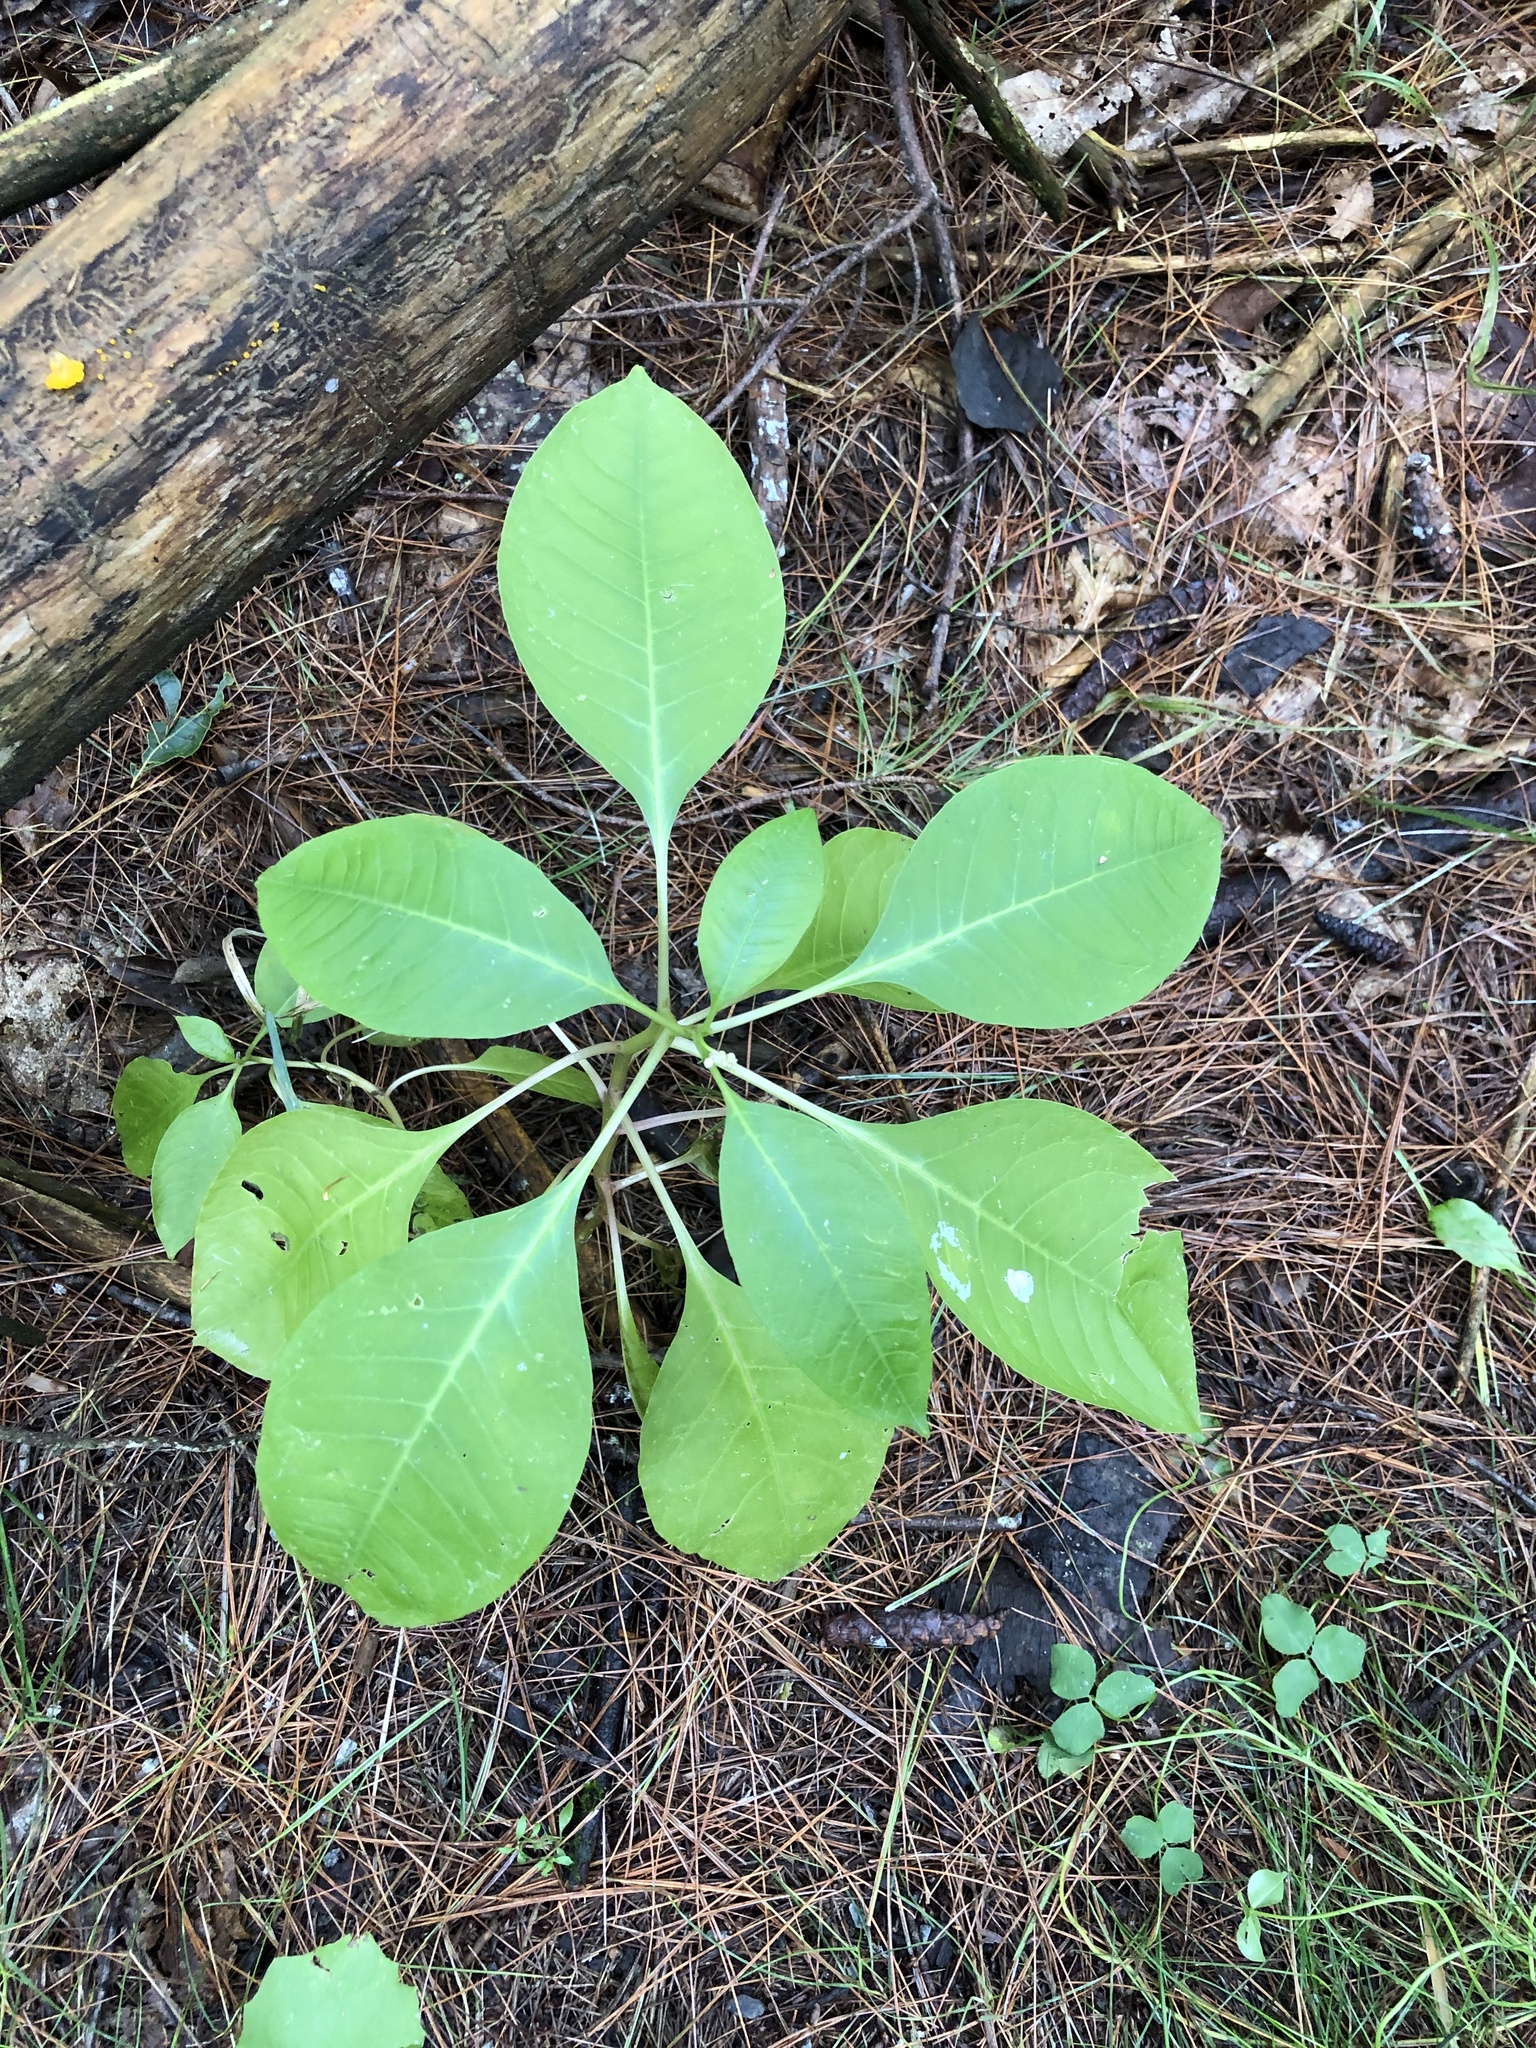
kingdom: Plantae
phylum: Tracheophyta
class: Magnoliopsida
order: Caryophyllales
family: Phytolaccaceae
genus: Phytolacca
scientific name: Phytolacca americana
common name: American pokeweed
